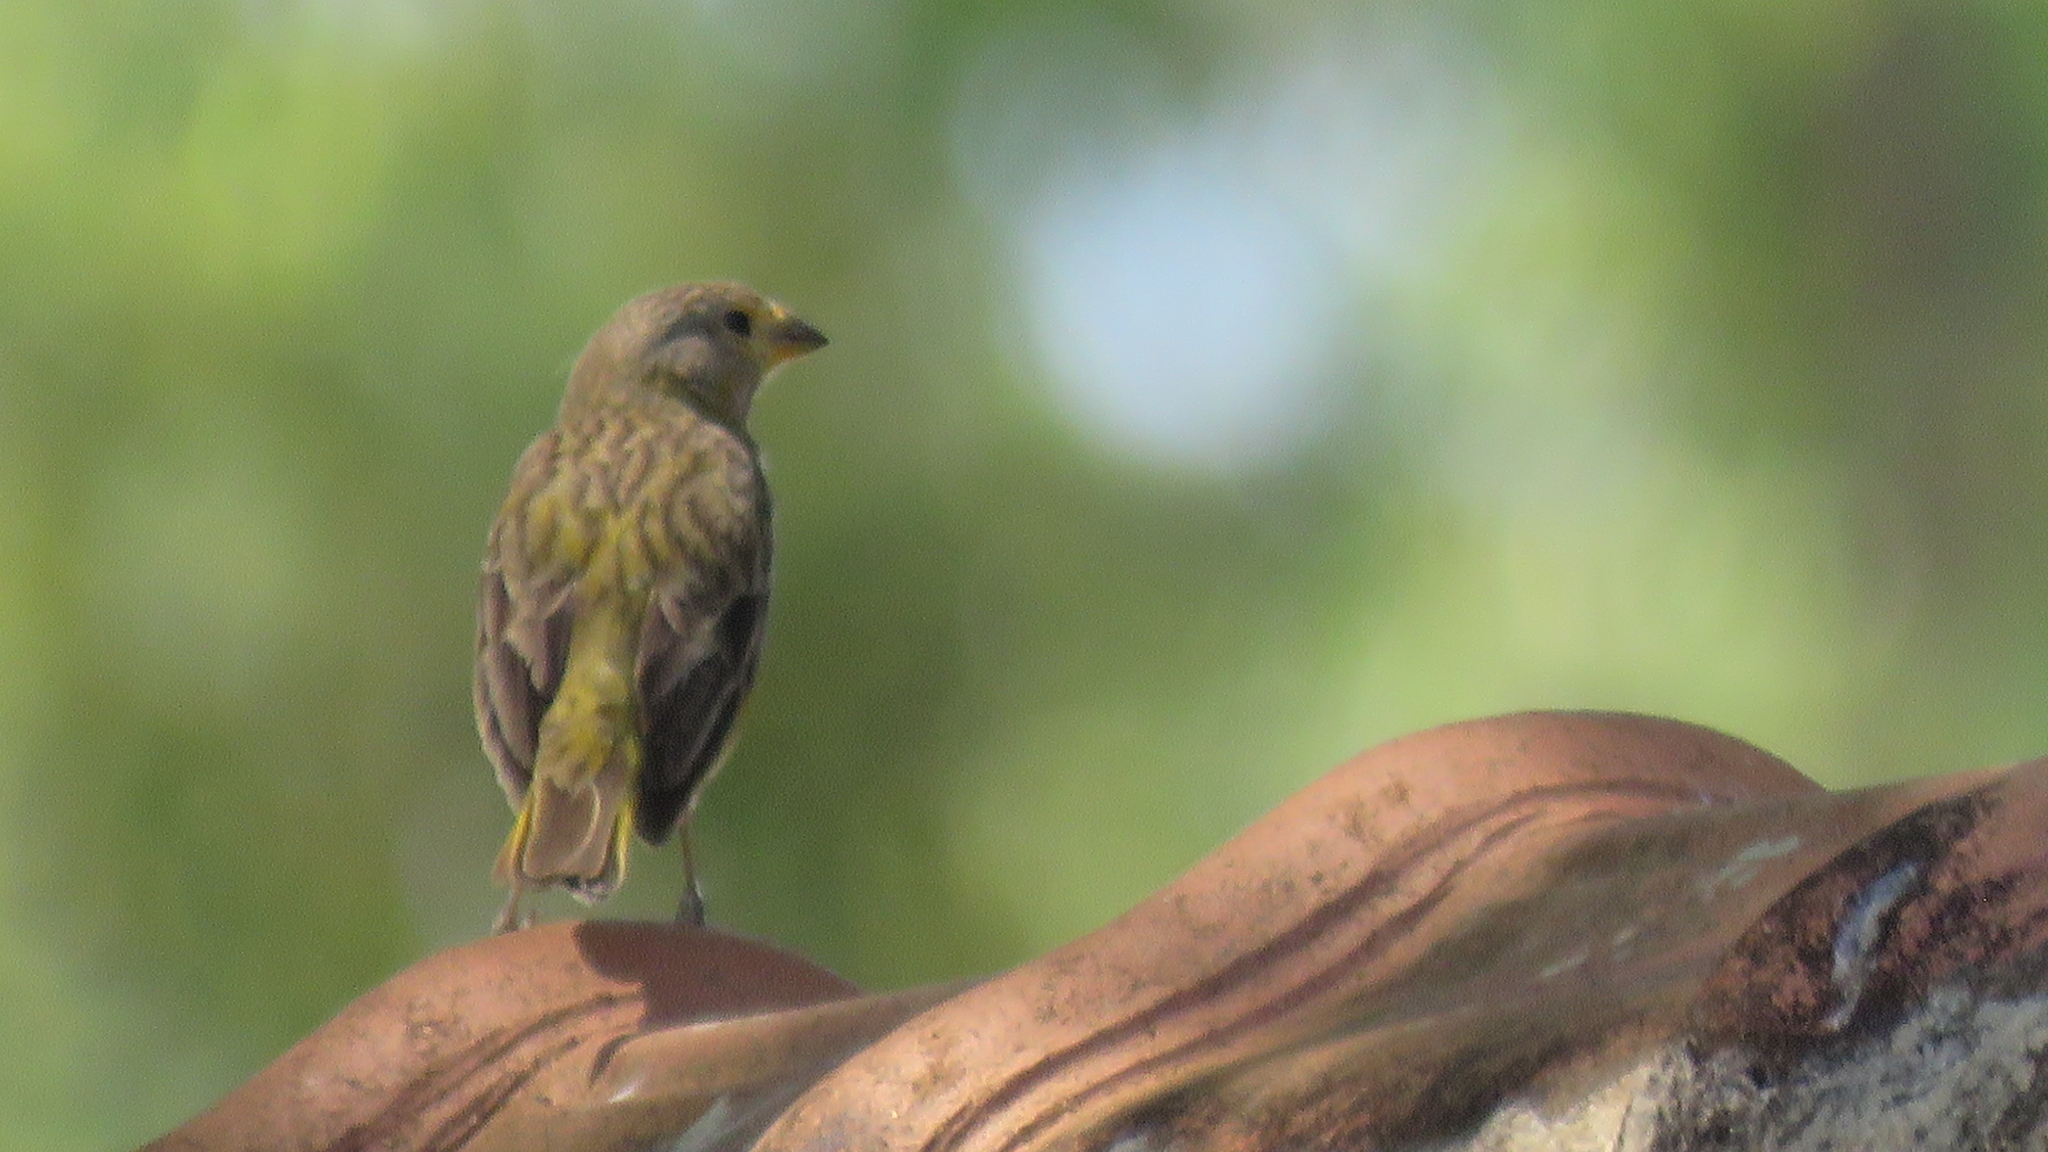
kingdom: Animalia
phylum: Chordata
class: Aves
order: Passeriformes
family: Thraupidae
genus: Sicalis
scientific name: Sicalis flaveola
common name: Saffron finch
